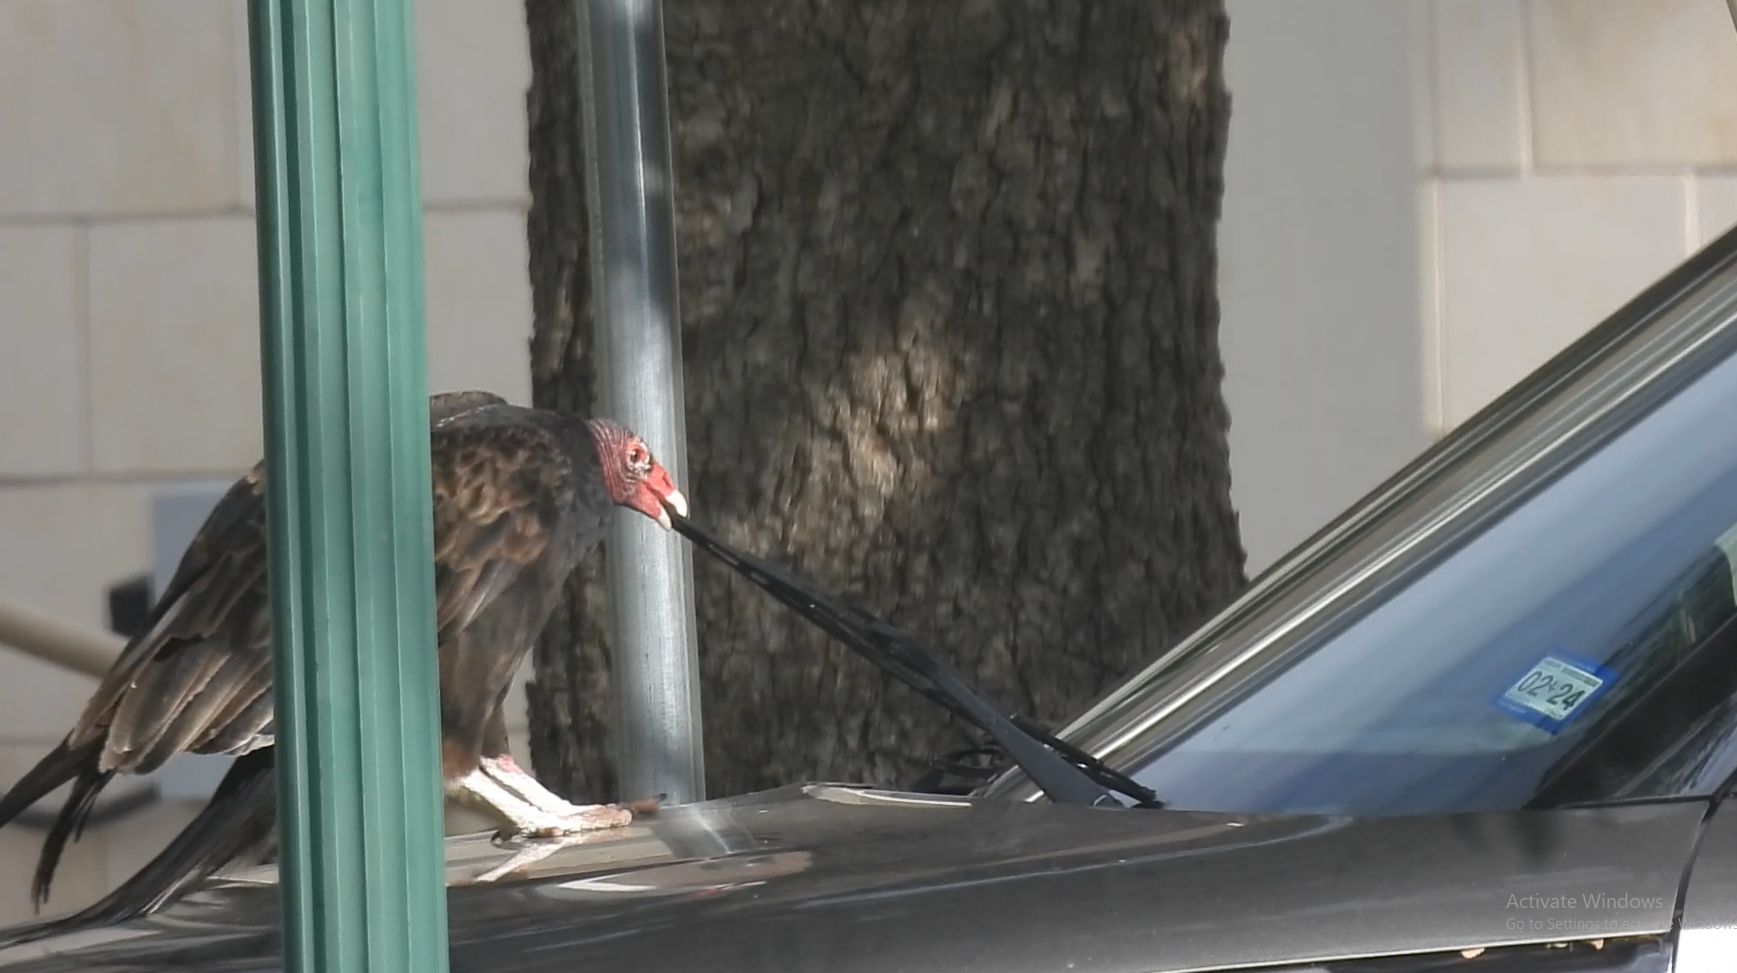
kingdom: Animalia
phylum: Chordata
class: Aves
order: Accipitriformes
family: Cathartidae
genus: Cathartes
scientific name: Cathartes aura
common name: Turkey vulture
